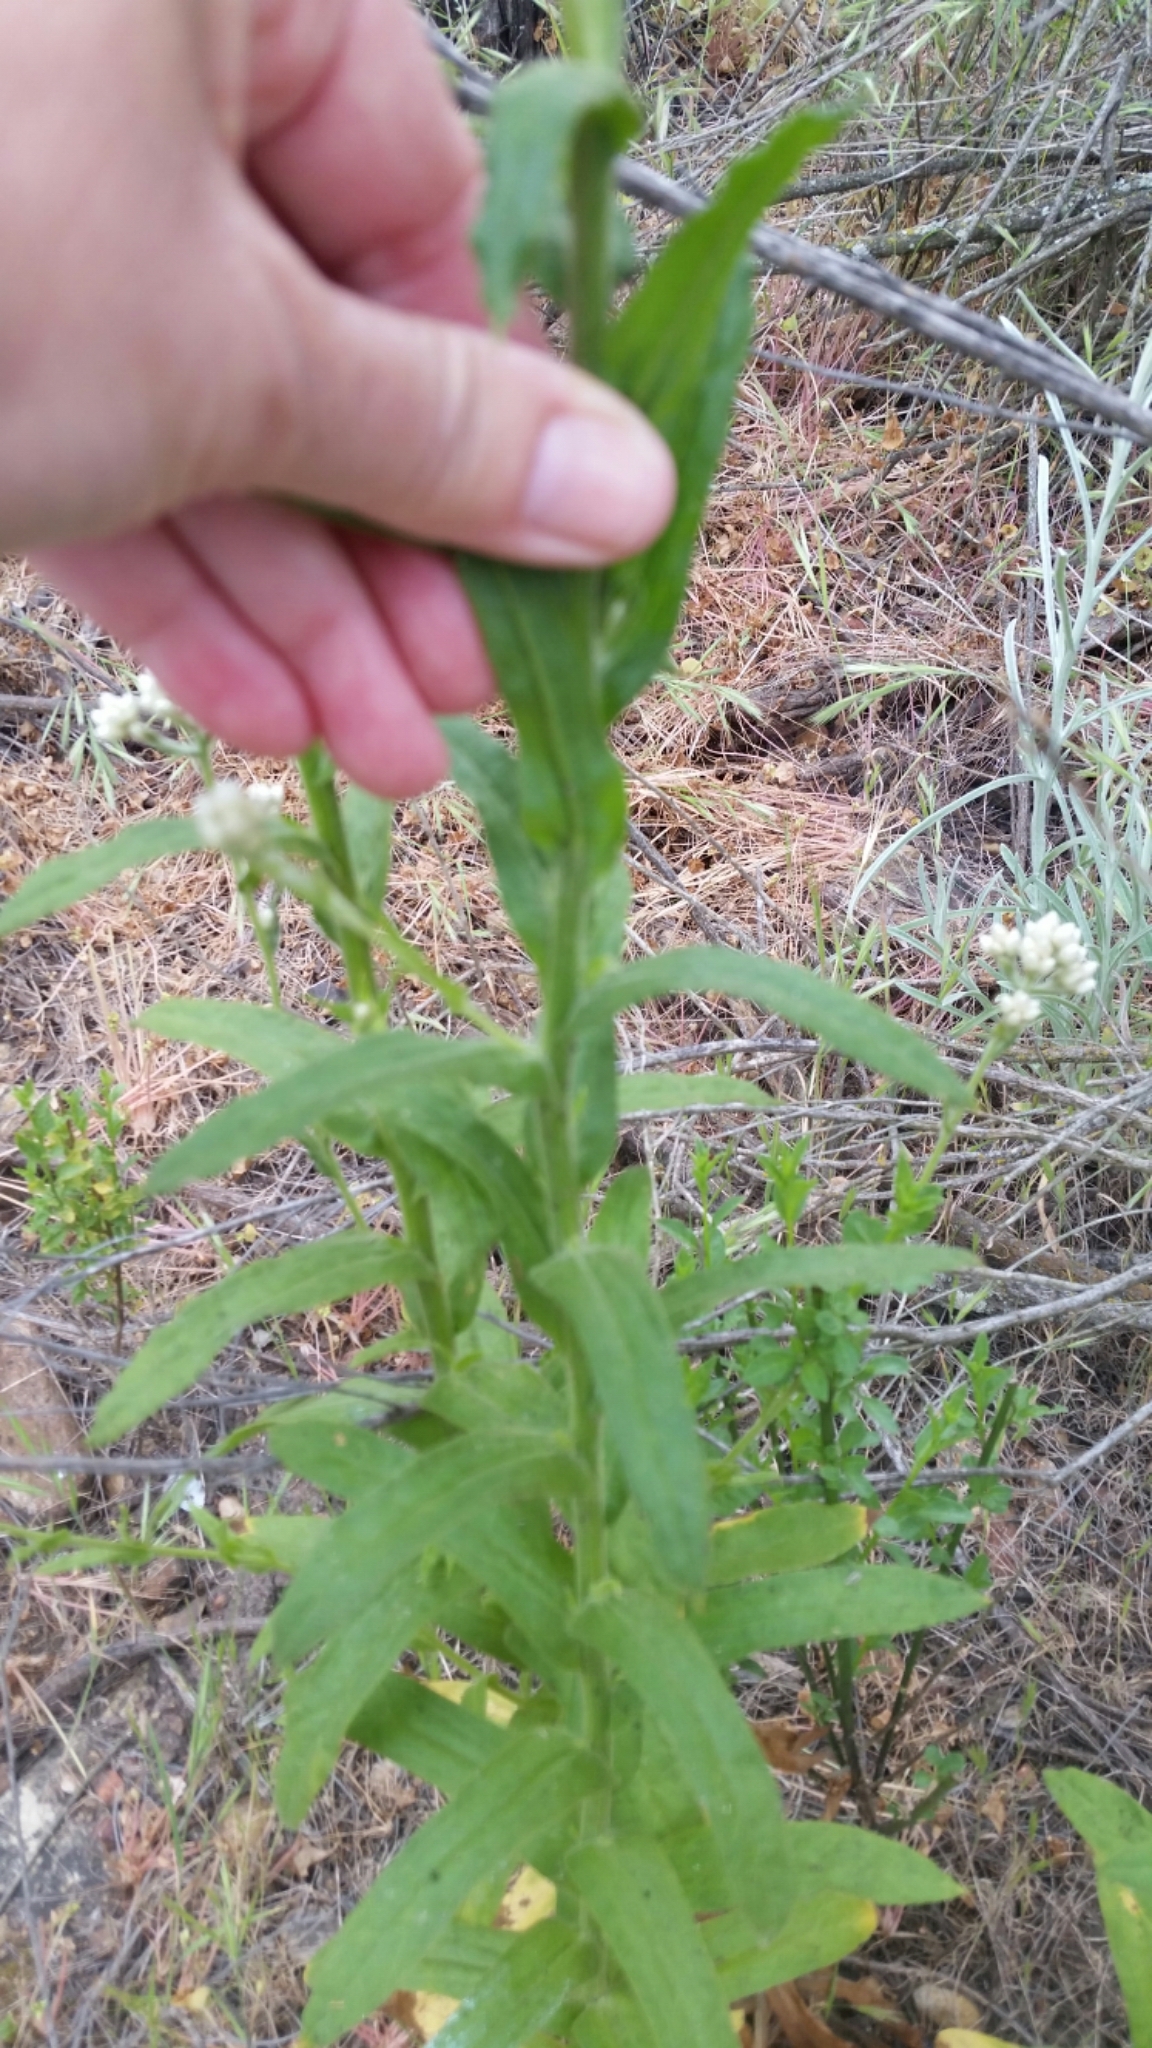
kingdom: Plantae
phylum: Tracheophyta
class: Magnoliopsida
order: Asterales
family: Asteraceae
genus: Pseudognaphalium
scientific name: Pseudognaphalium californicum
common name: California rabbit-tobacco
